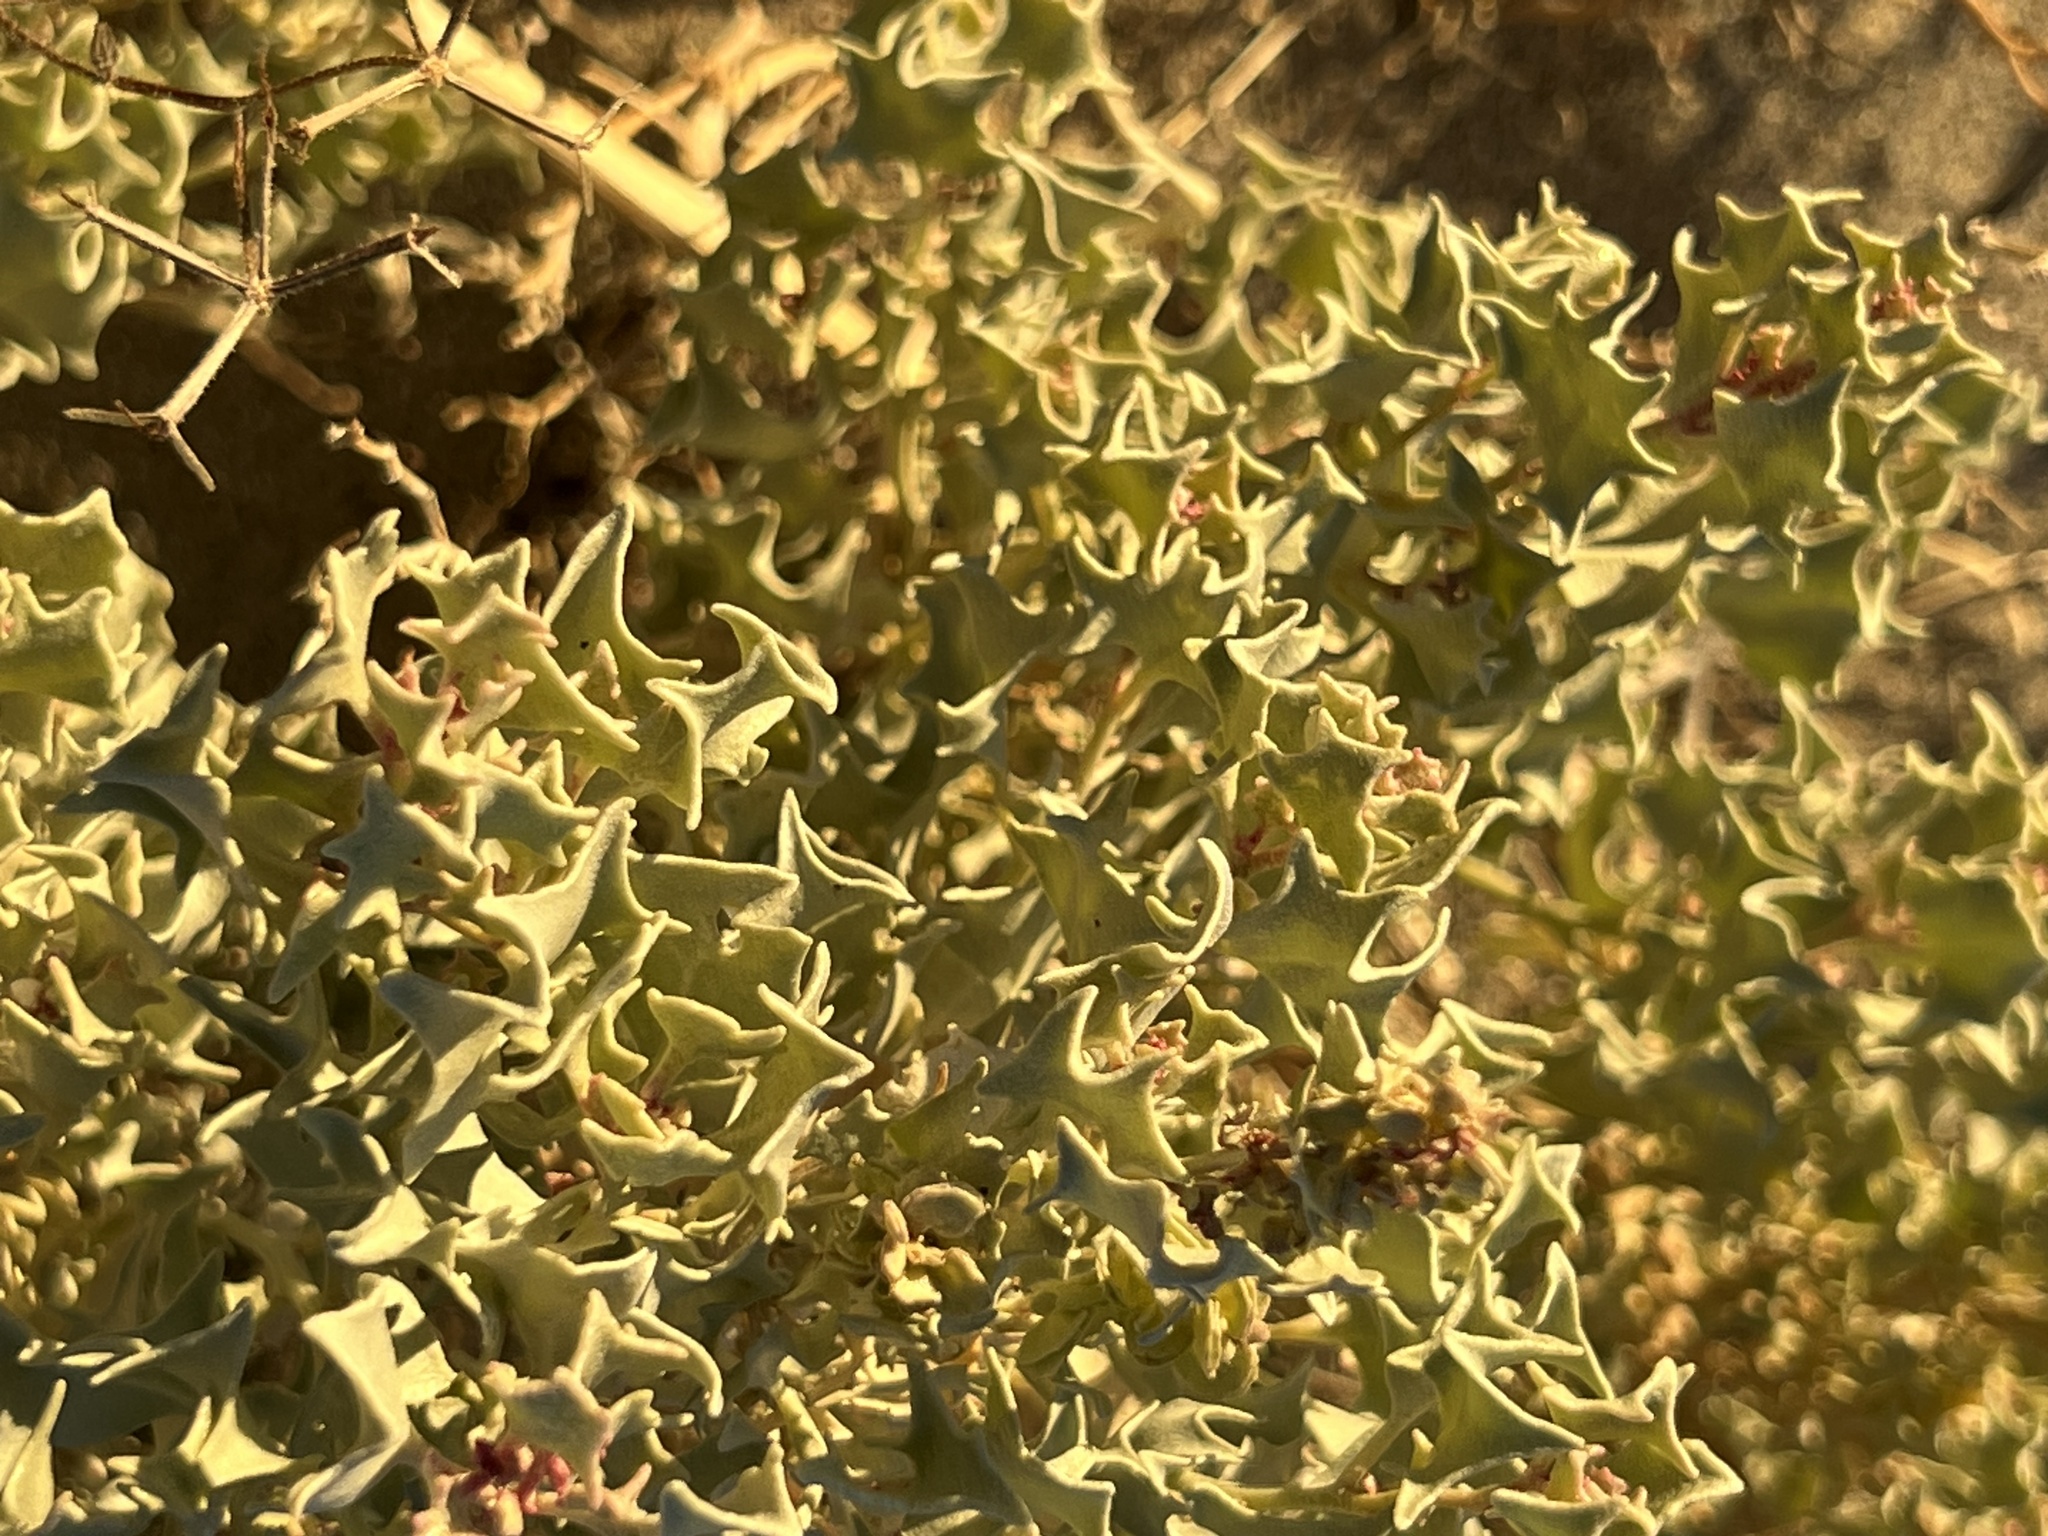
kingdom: Plantae
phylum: Tracheophyta
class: Magnoliopsida
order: Caryophyllales
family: Amaranthaceae
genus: Atriplex
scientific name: Atriplex hymenelytra
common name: Desert-holly
